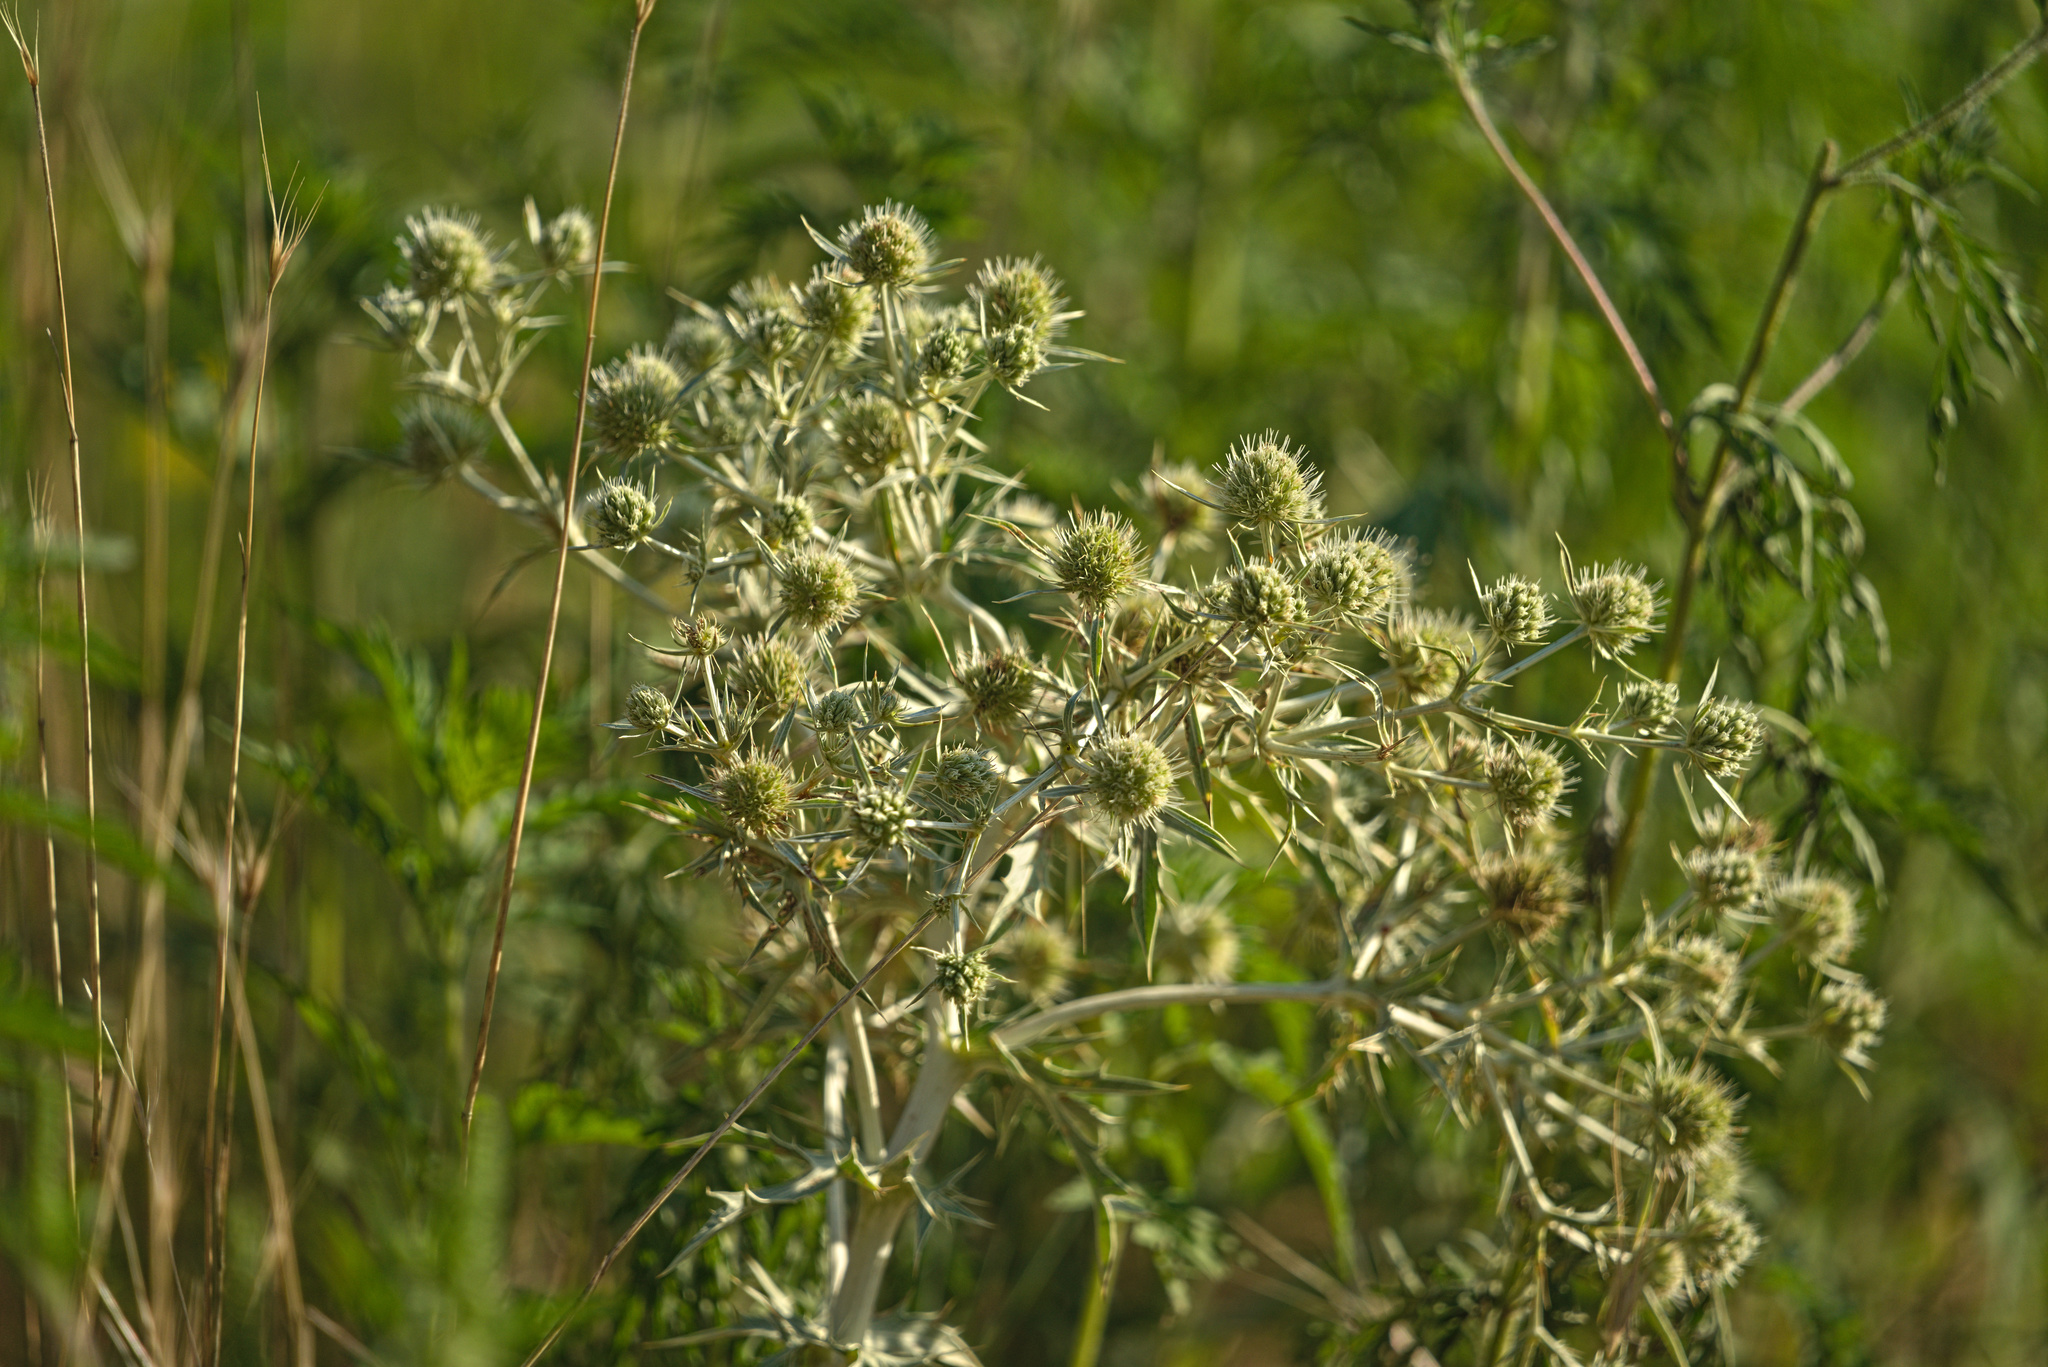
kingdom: Plantae
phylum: Tracheophyta
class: Magnoliopsida
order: Apiales
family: Apiaceae
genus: Eryngium
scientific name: Eryngium campestre
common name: Field eryngo
